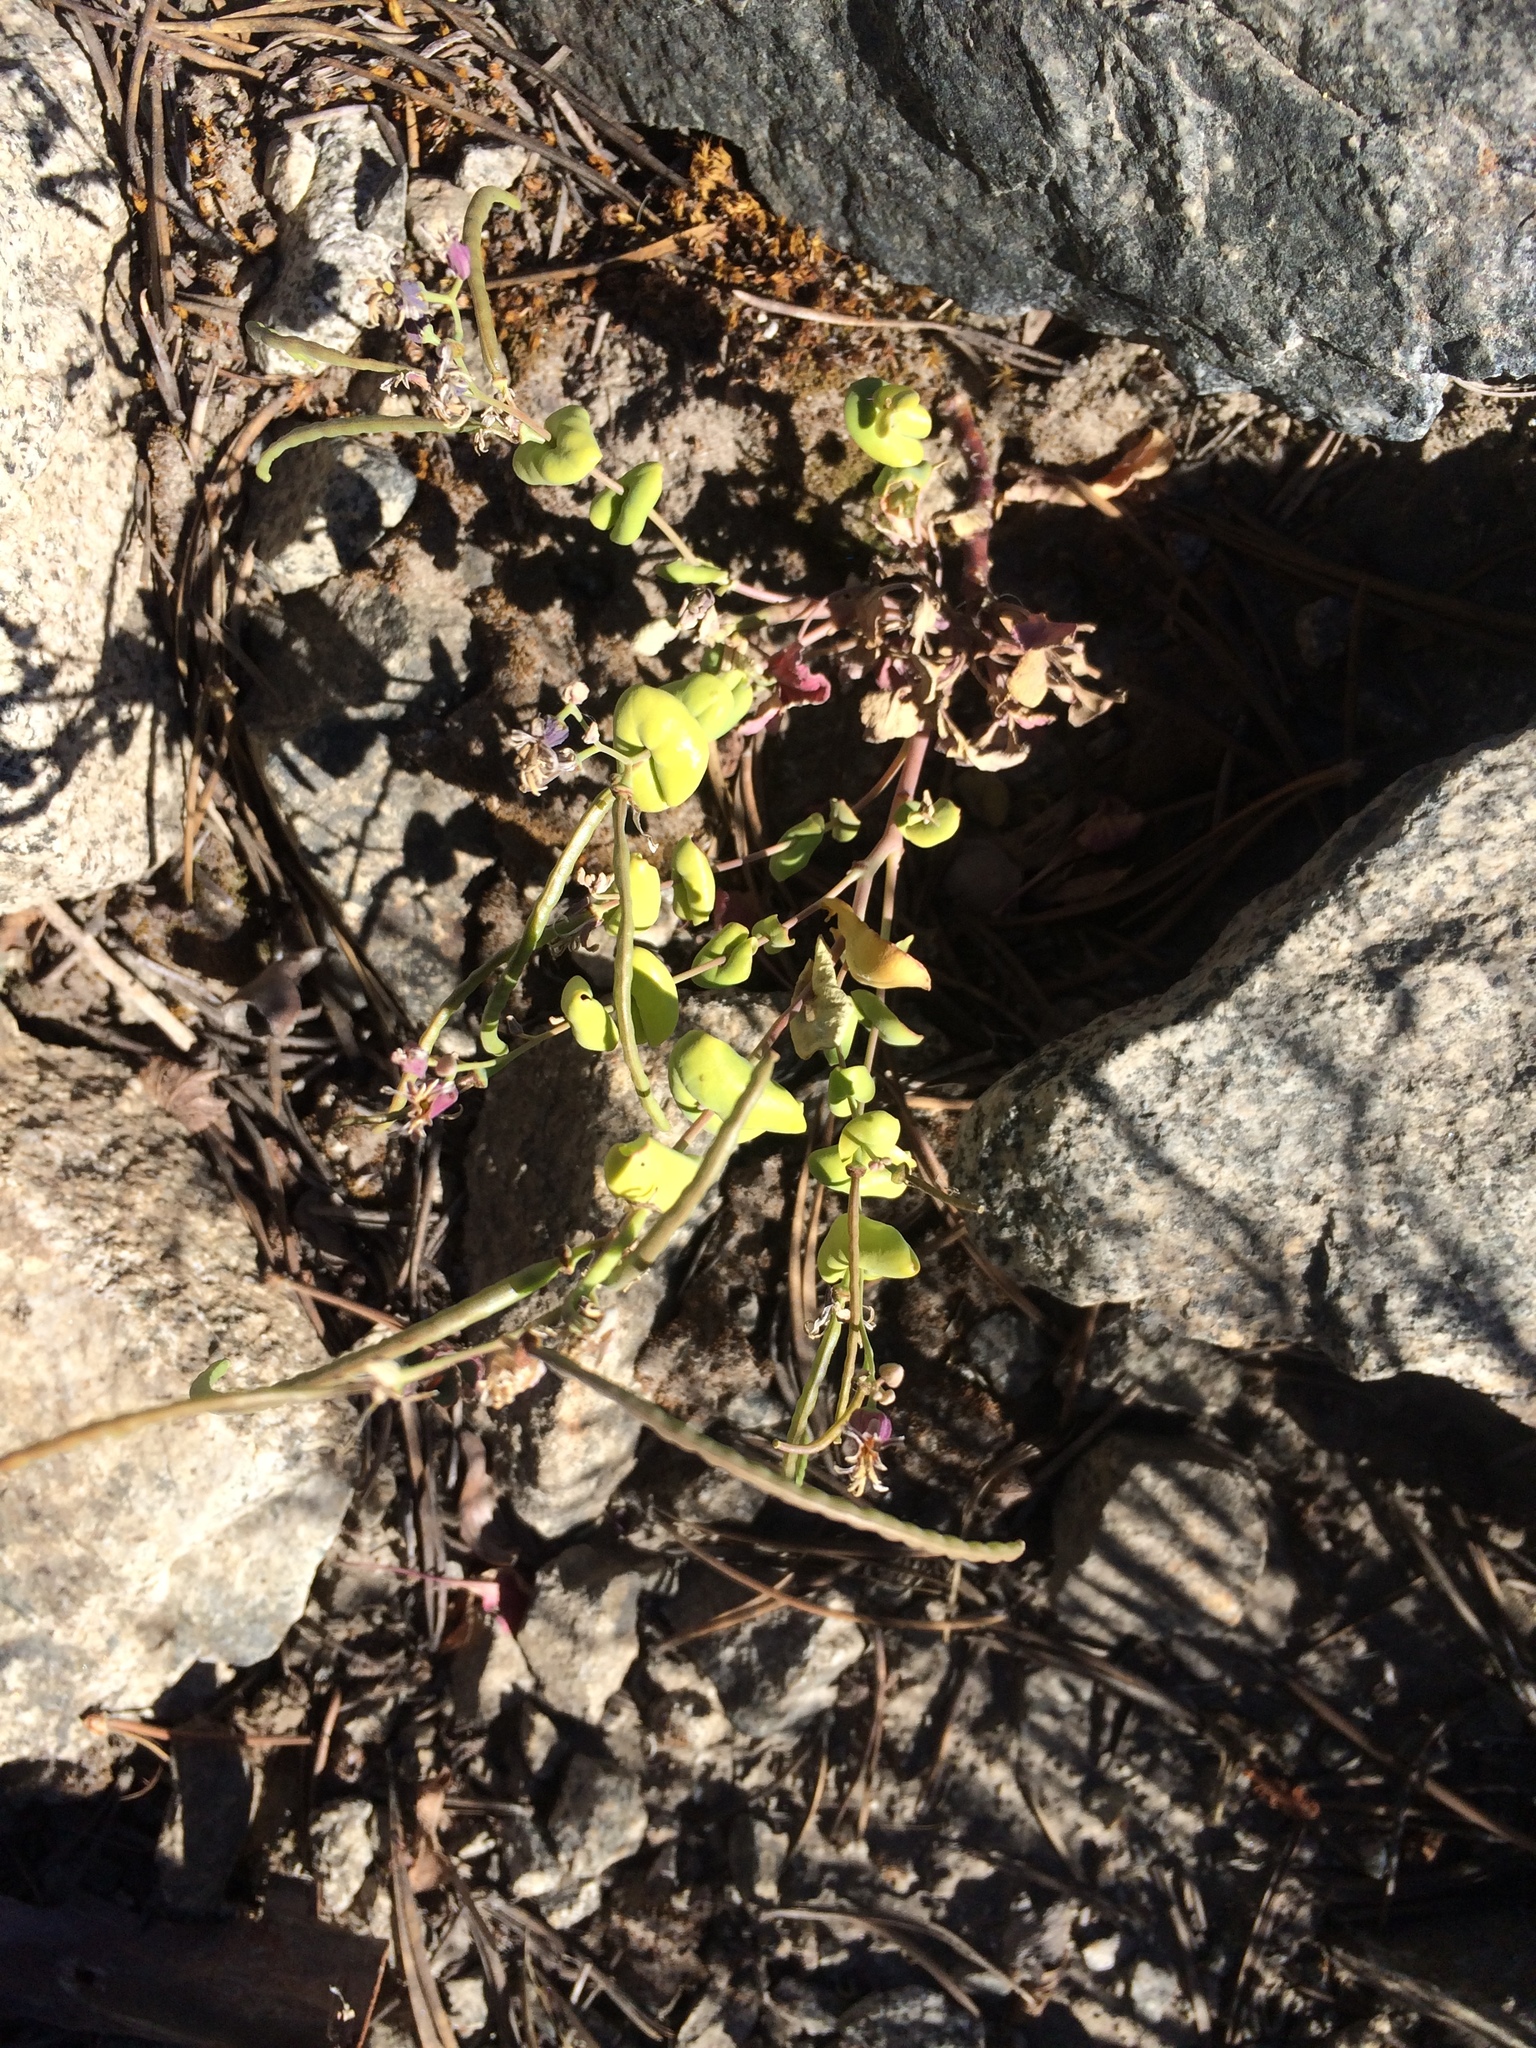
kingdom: Plantae
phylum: Tracheophyta
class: Magnoliopsida
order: Brassicales
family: Brassicaceae
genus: Streptanthus
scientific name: Streptanthus tortuosus
